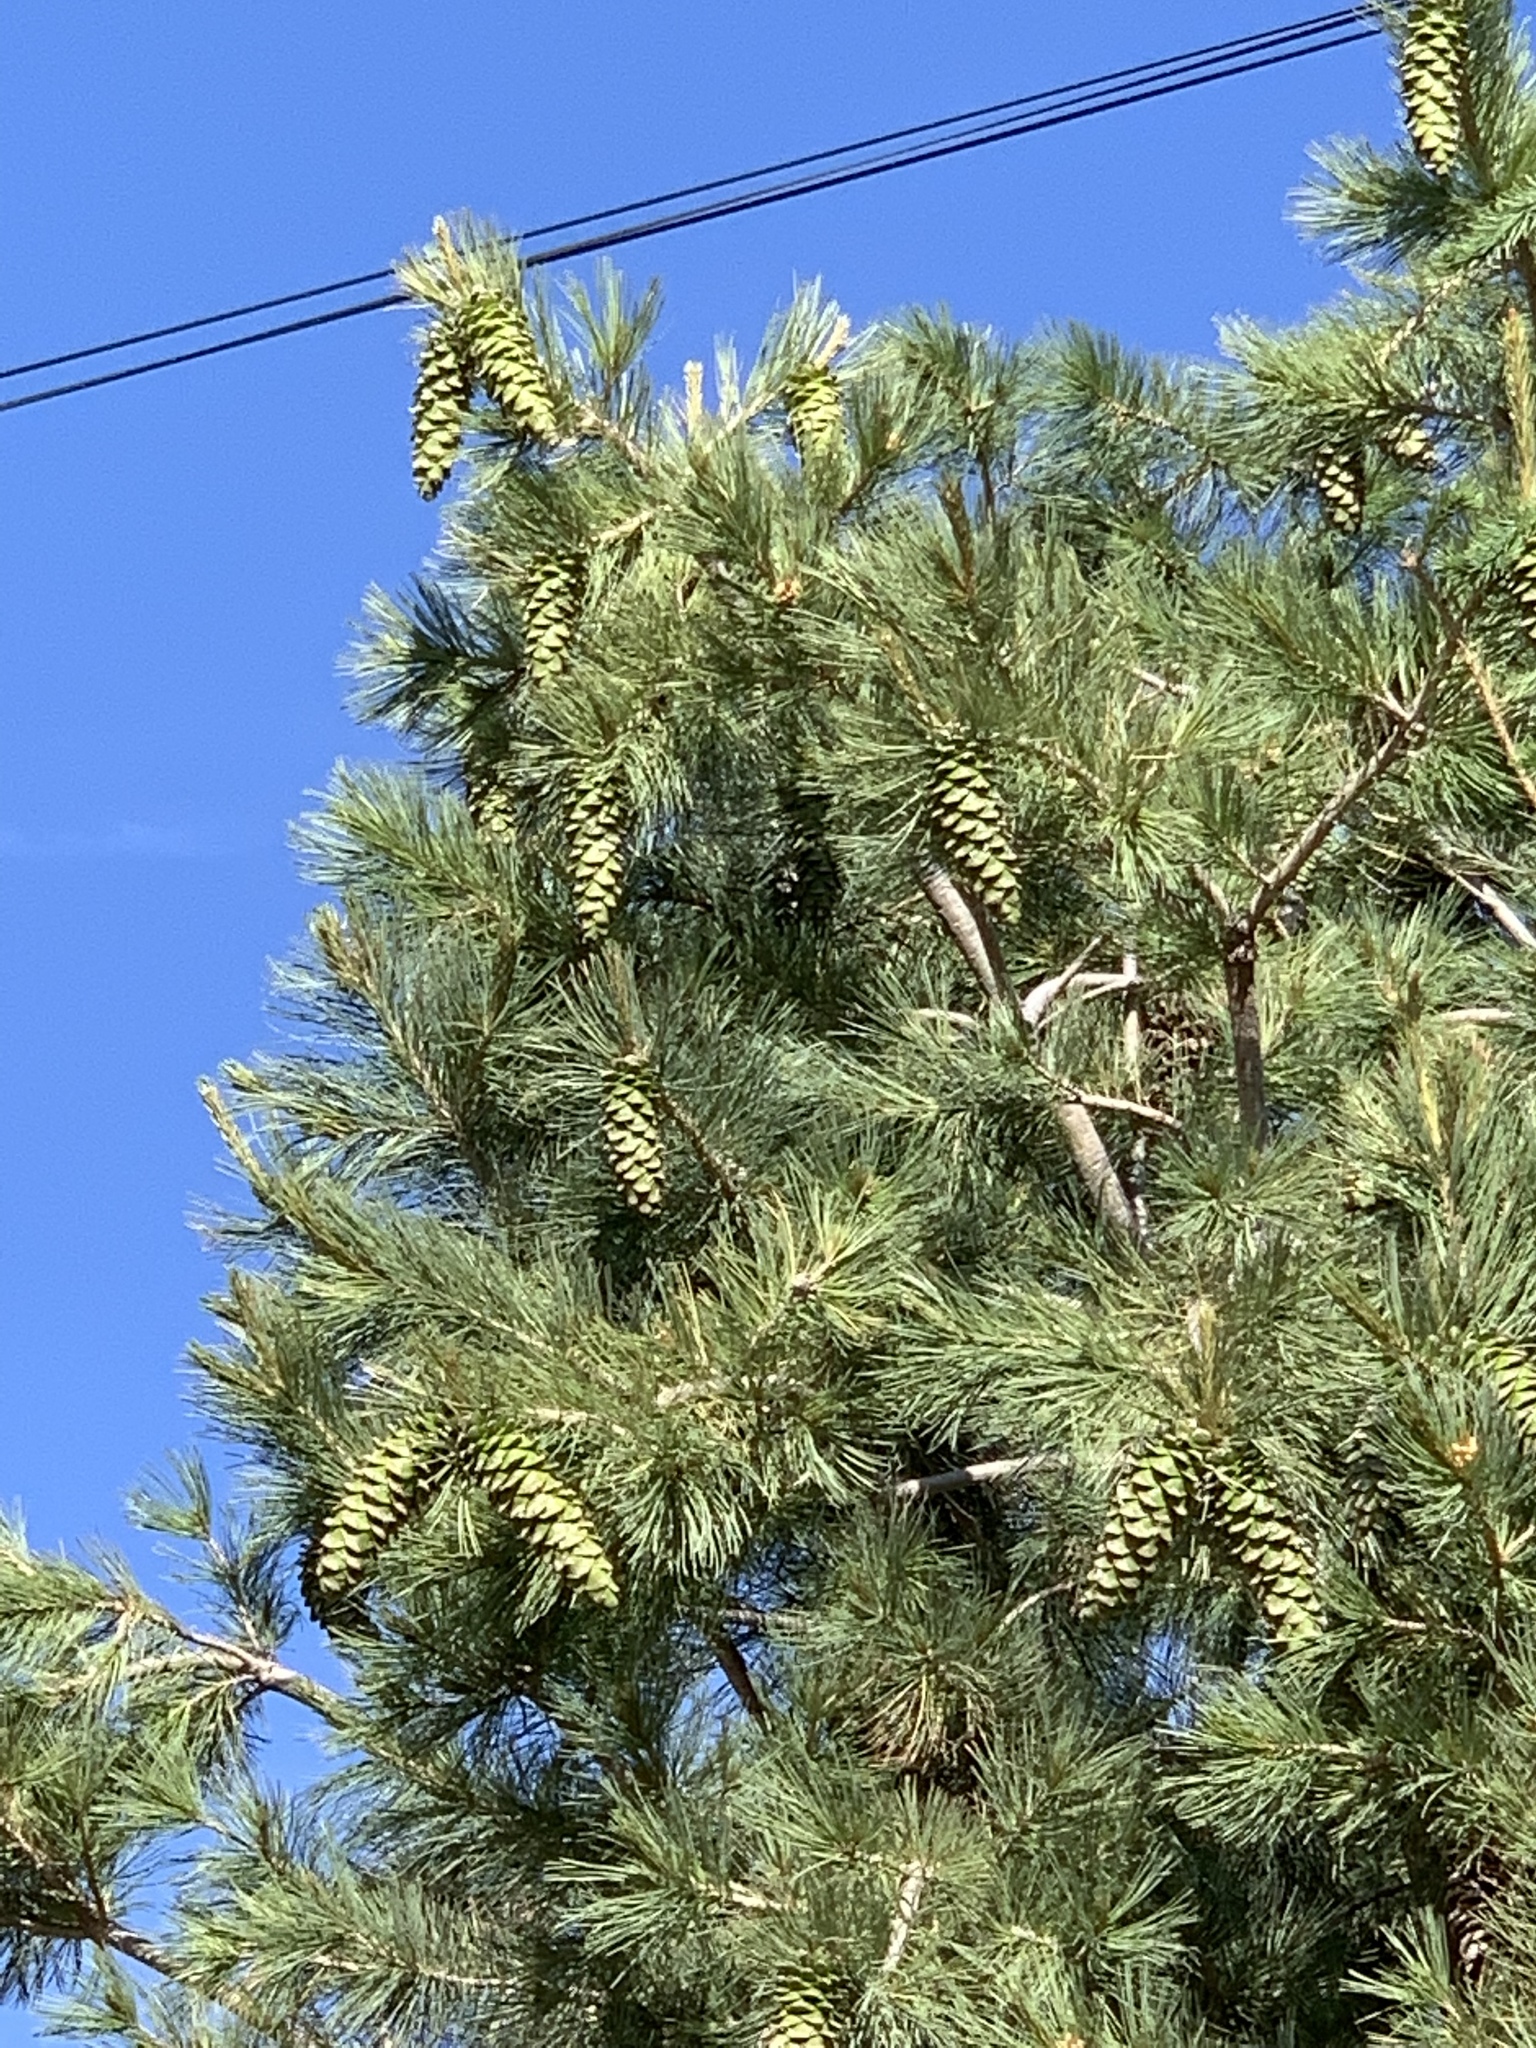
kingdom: Plantae
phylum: Tracheophyta
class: Pinopsida
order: Pinales
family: Pinaceae
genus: Pinus
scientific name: Pinus strobiformis
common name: Southwestern white pine
